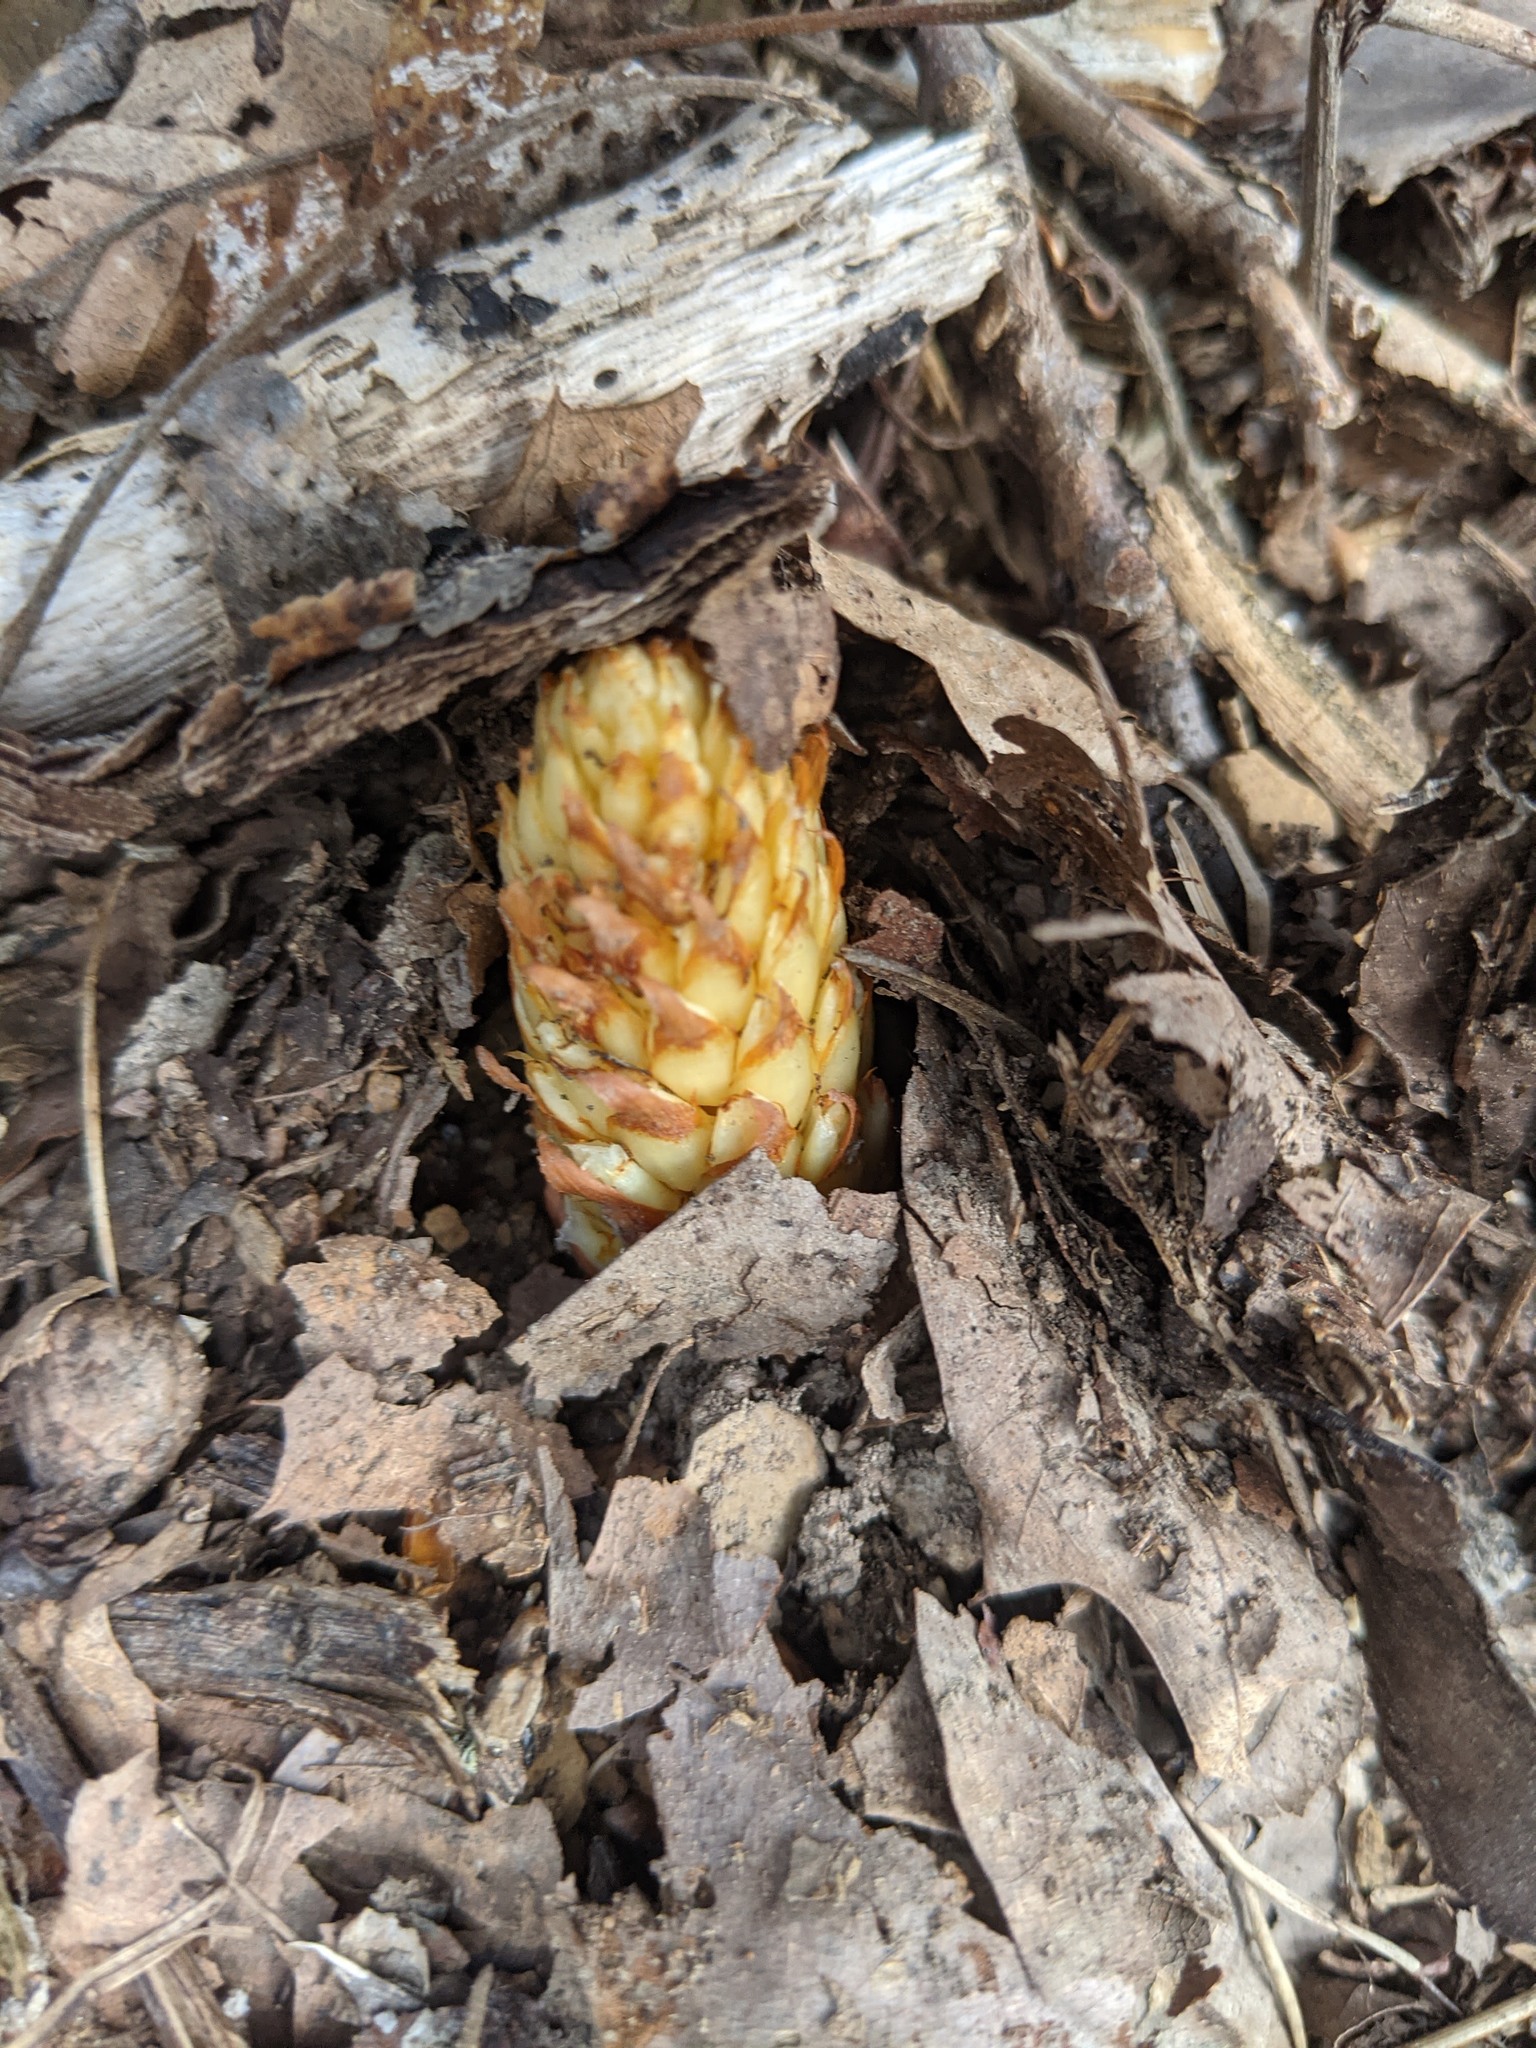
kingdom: Plantae
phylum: Tracheophyta
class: Magnoliopsida
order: Lamiales
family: Orobanchaceae
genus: Conopholis
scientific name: Conopholis americana
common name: American cancer-root
